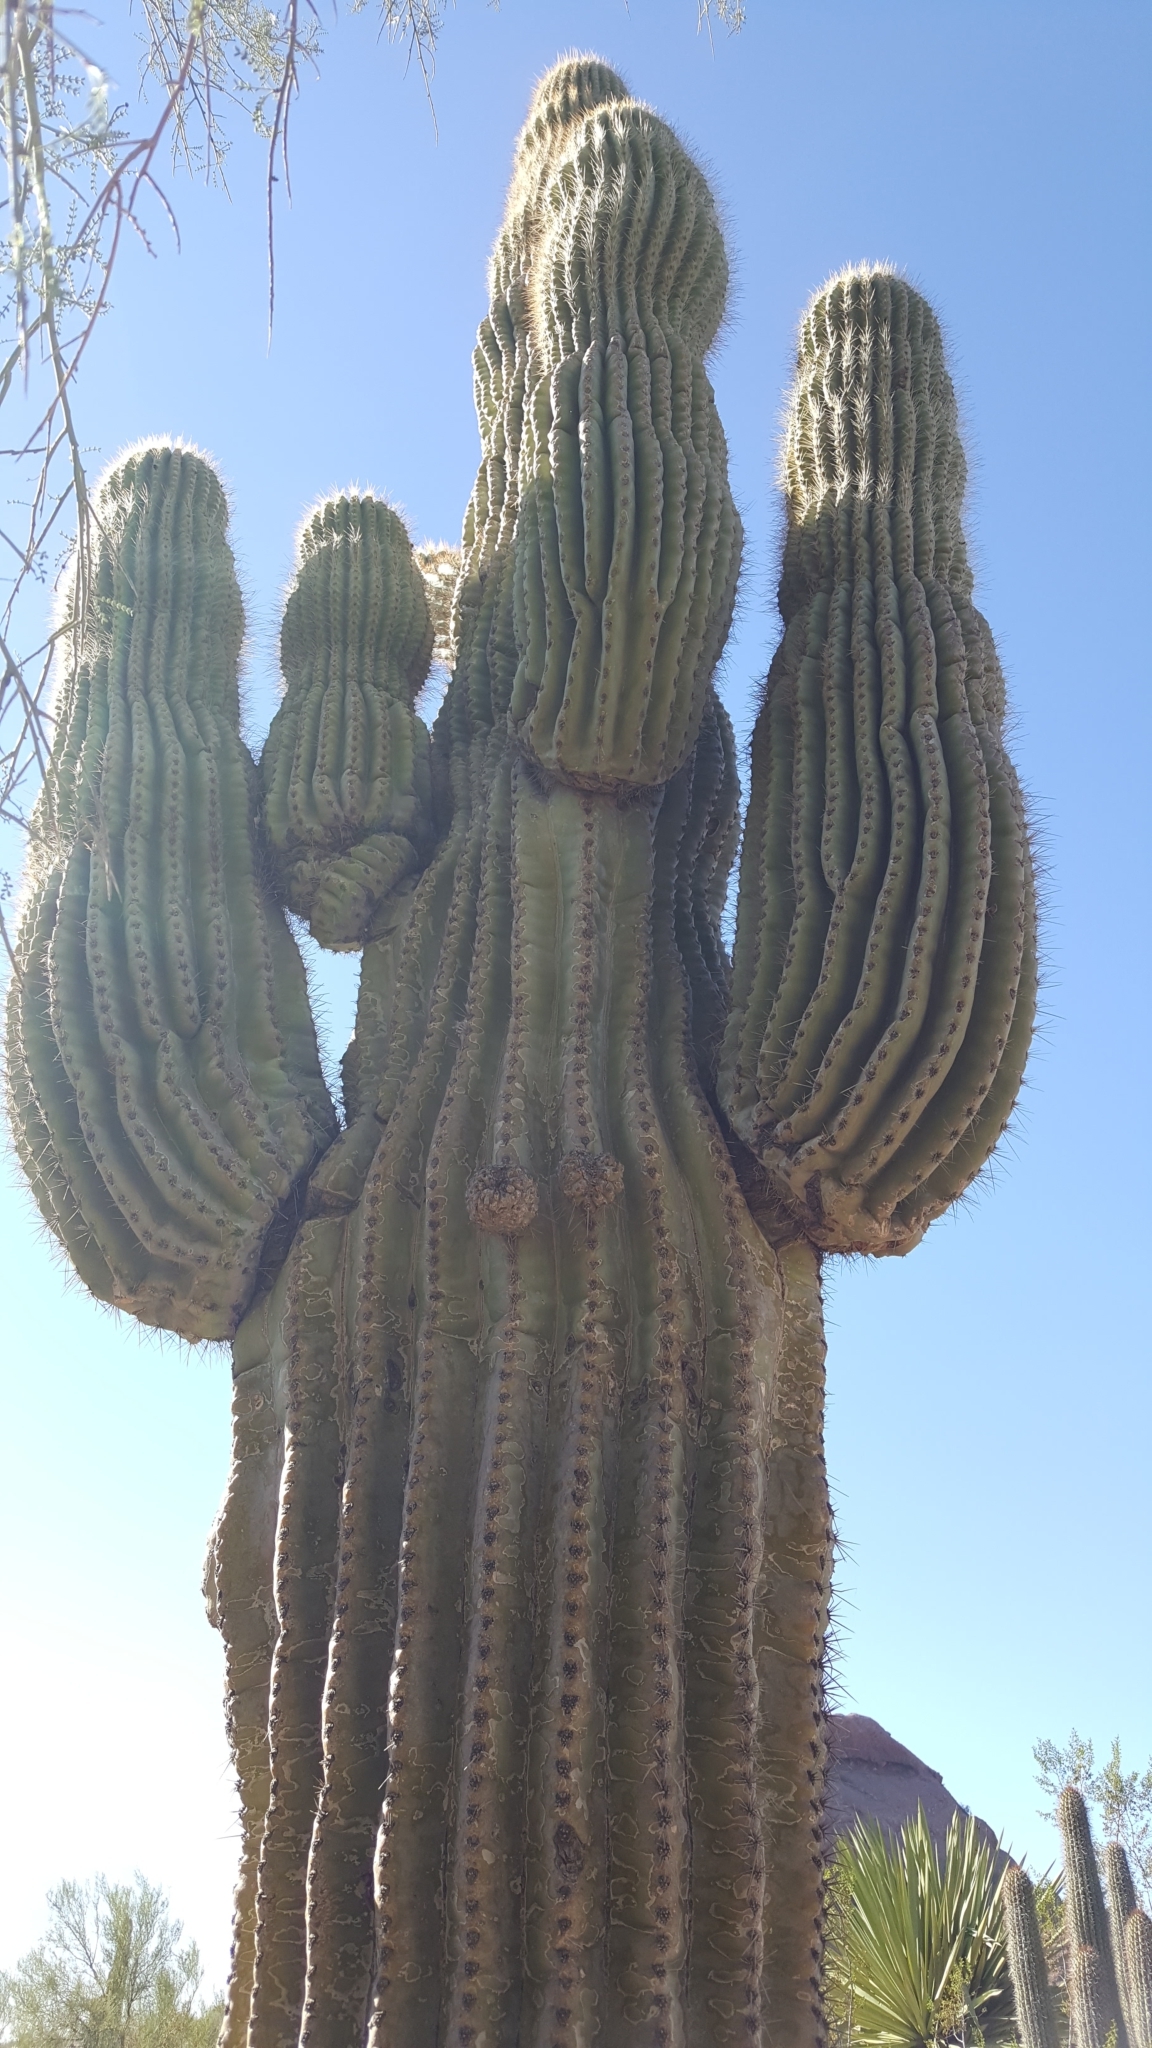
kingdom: Plantae
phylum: Tracheophyta
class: Magnoliopsida
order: Caryophyllales
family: Cactaceae
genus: Carnegiea
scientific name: Carnegiea gigantea
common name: Saguaro
